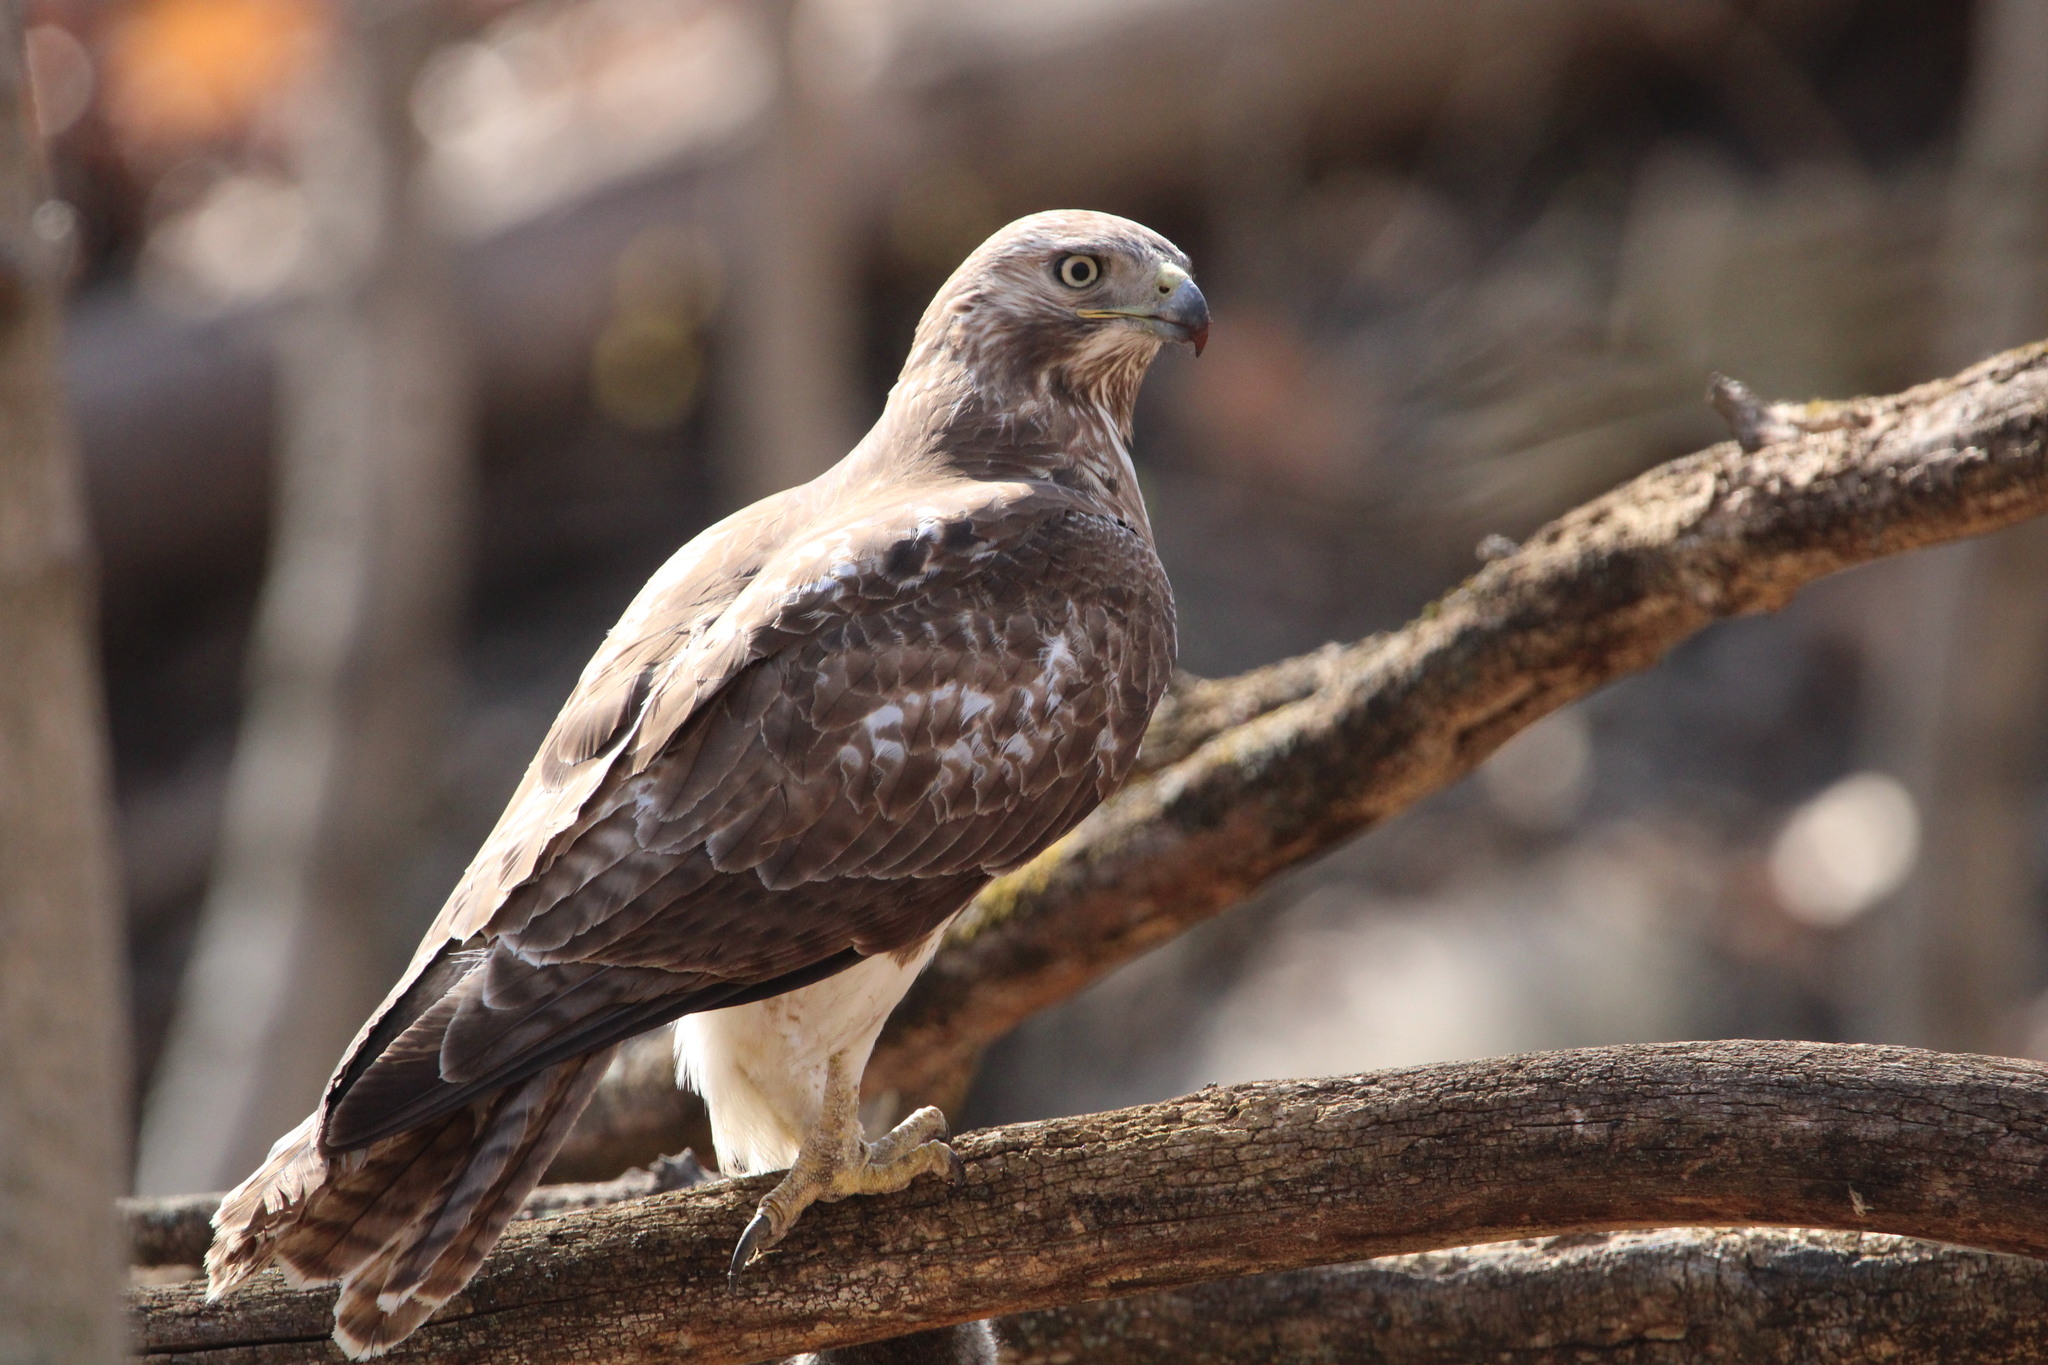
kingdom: Animalia
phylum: Chordata
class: Aves
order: Accipitriformes
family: Accipitridae
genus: Buteo
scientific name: Buteo jamaicensis
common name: Red-tailed hawk
